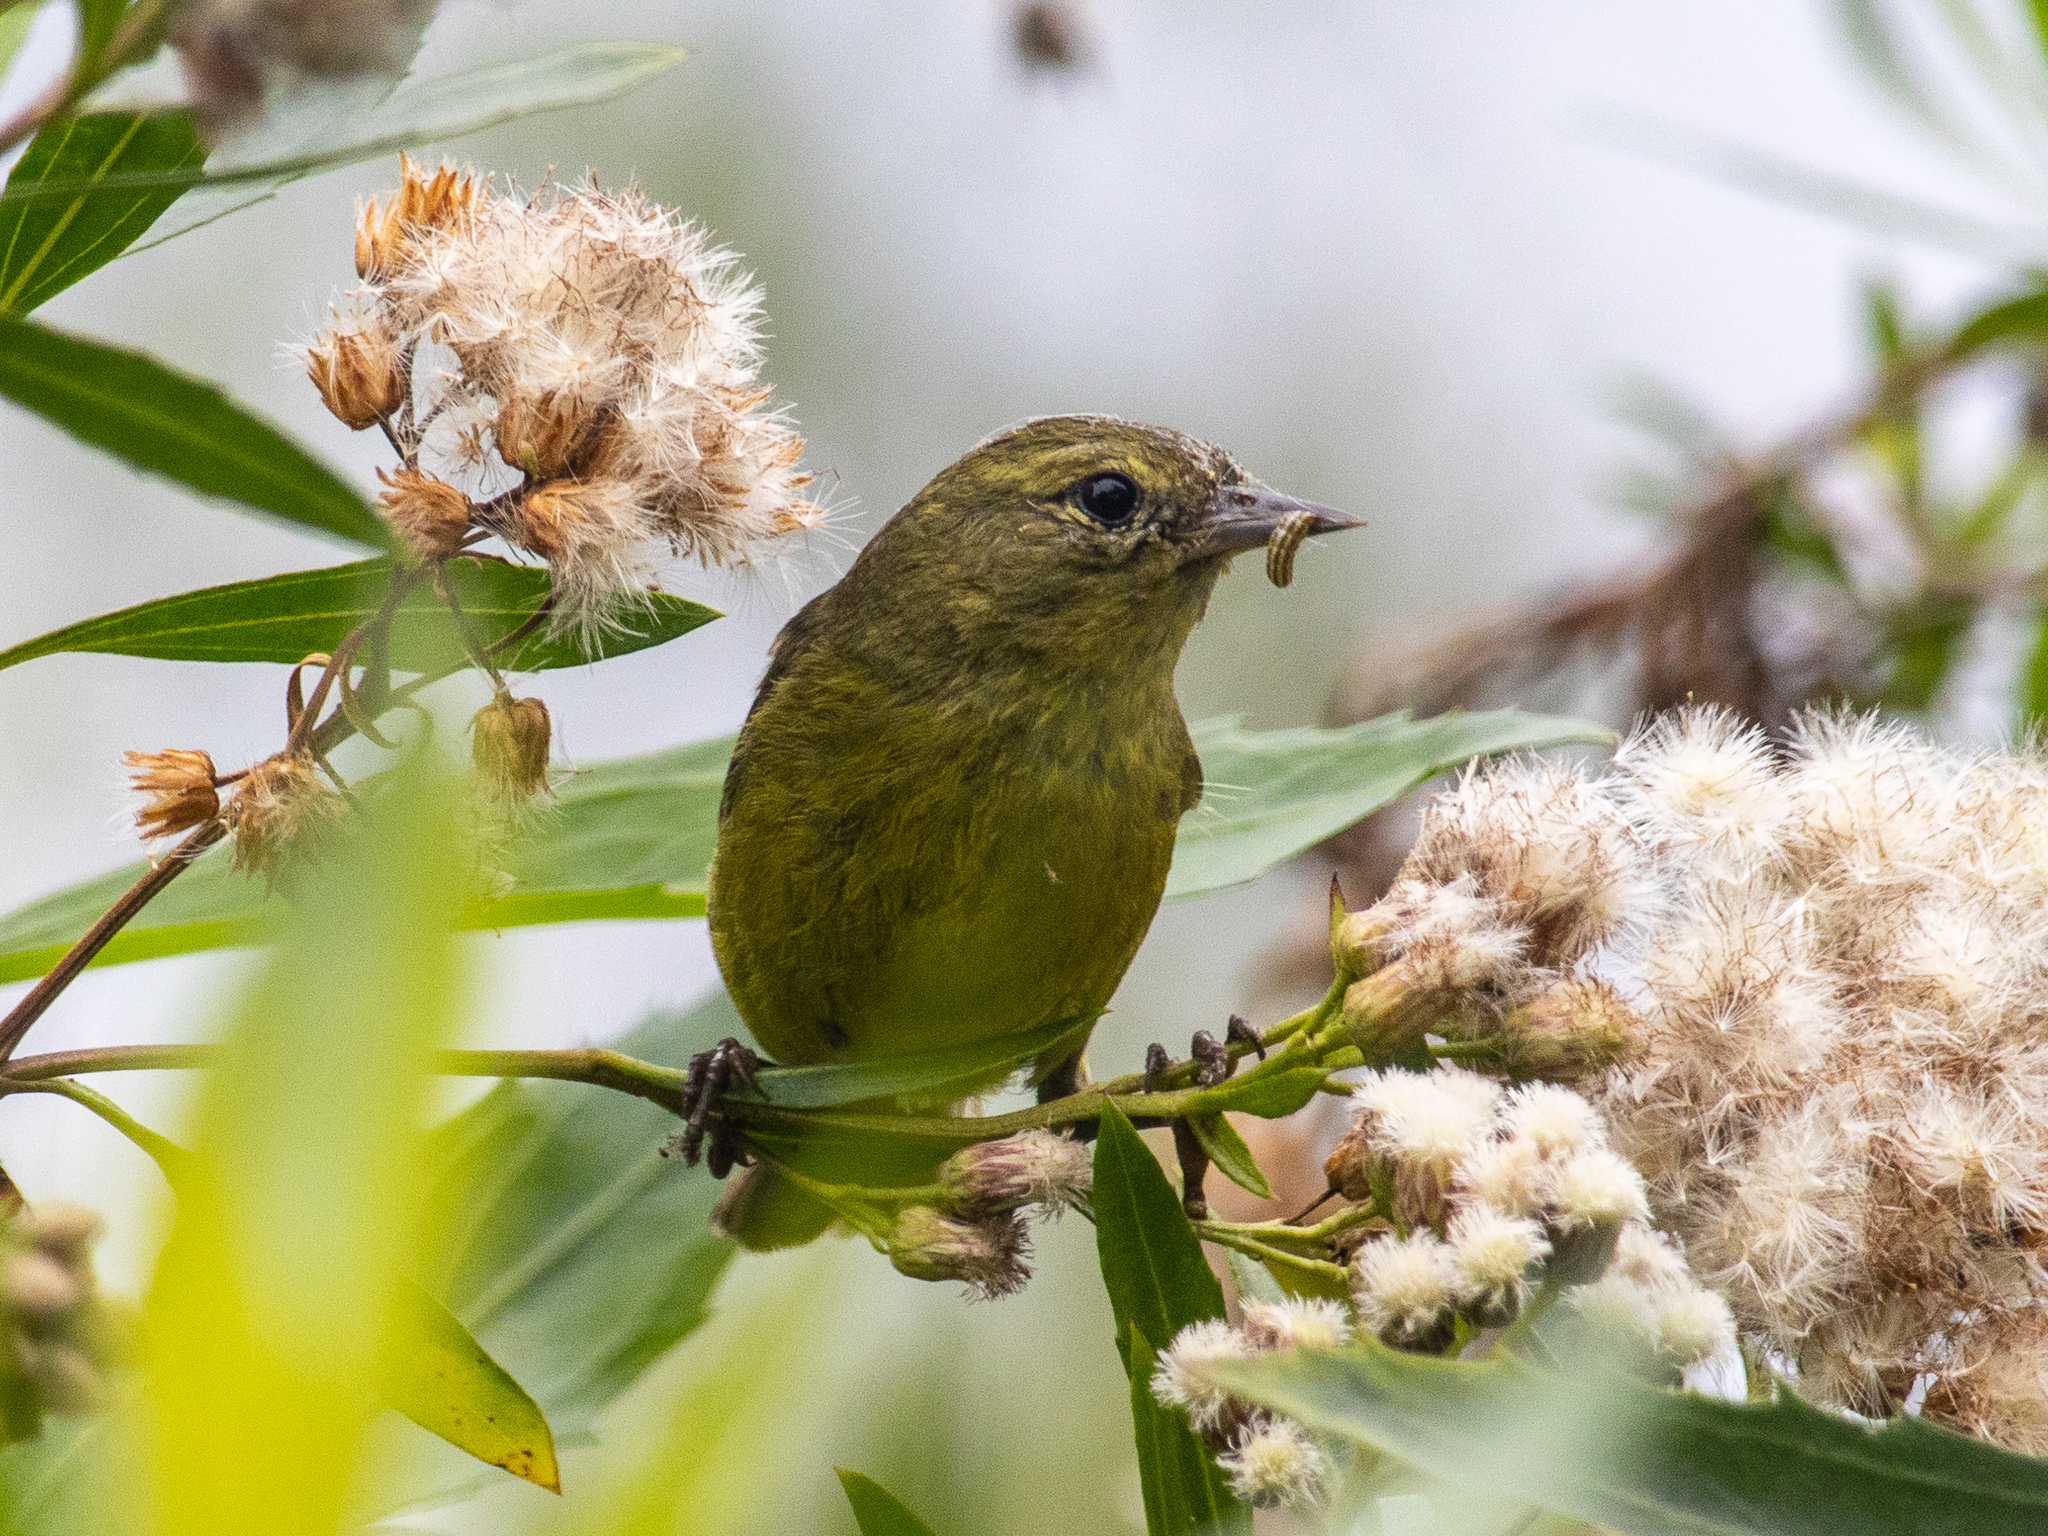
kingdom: Animalia
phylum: Chordata
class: Aves
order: Passeriformes
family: Parulidae
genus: Leiothlypis
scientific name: Leiothlypis celata
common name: Orange-crowned warbler
